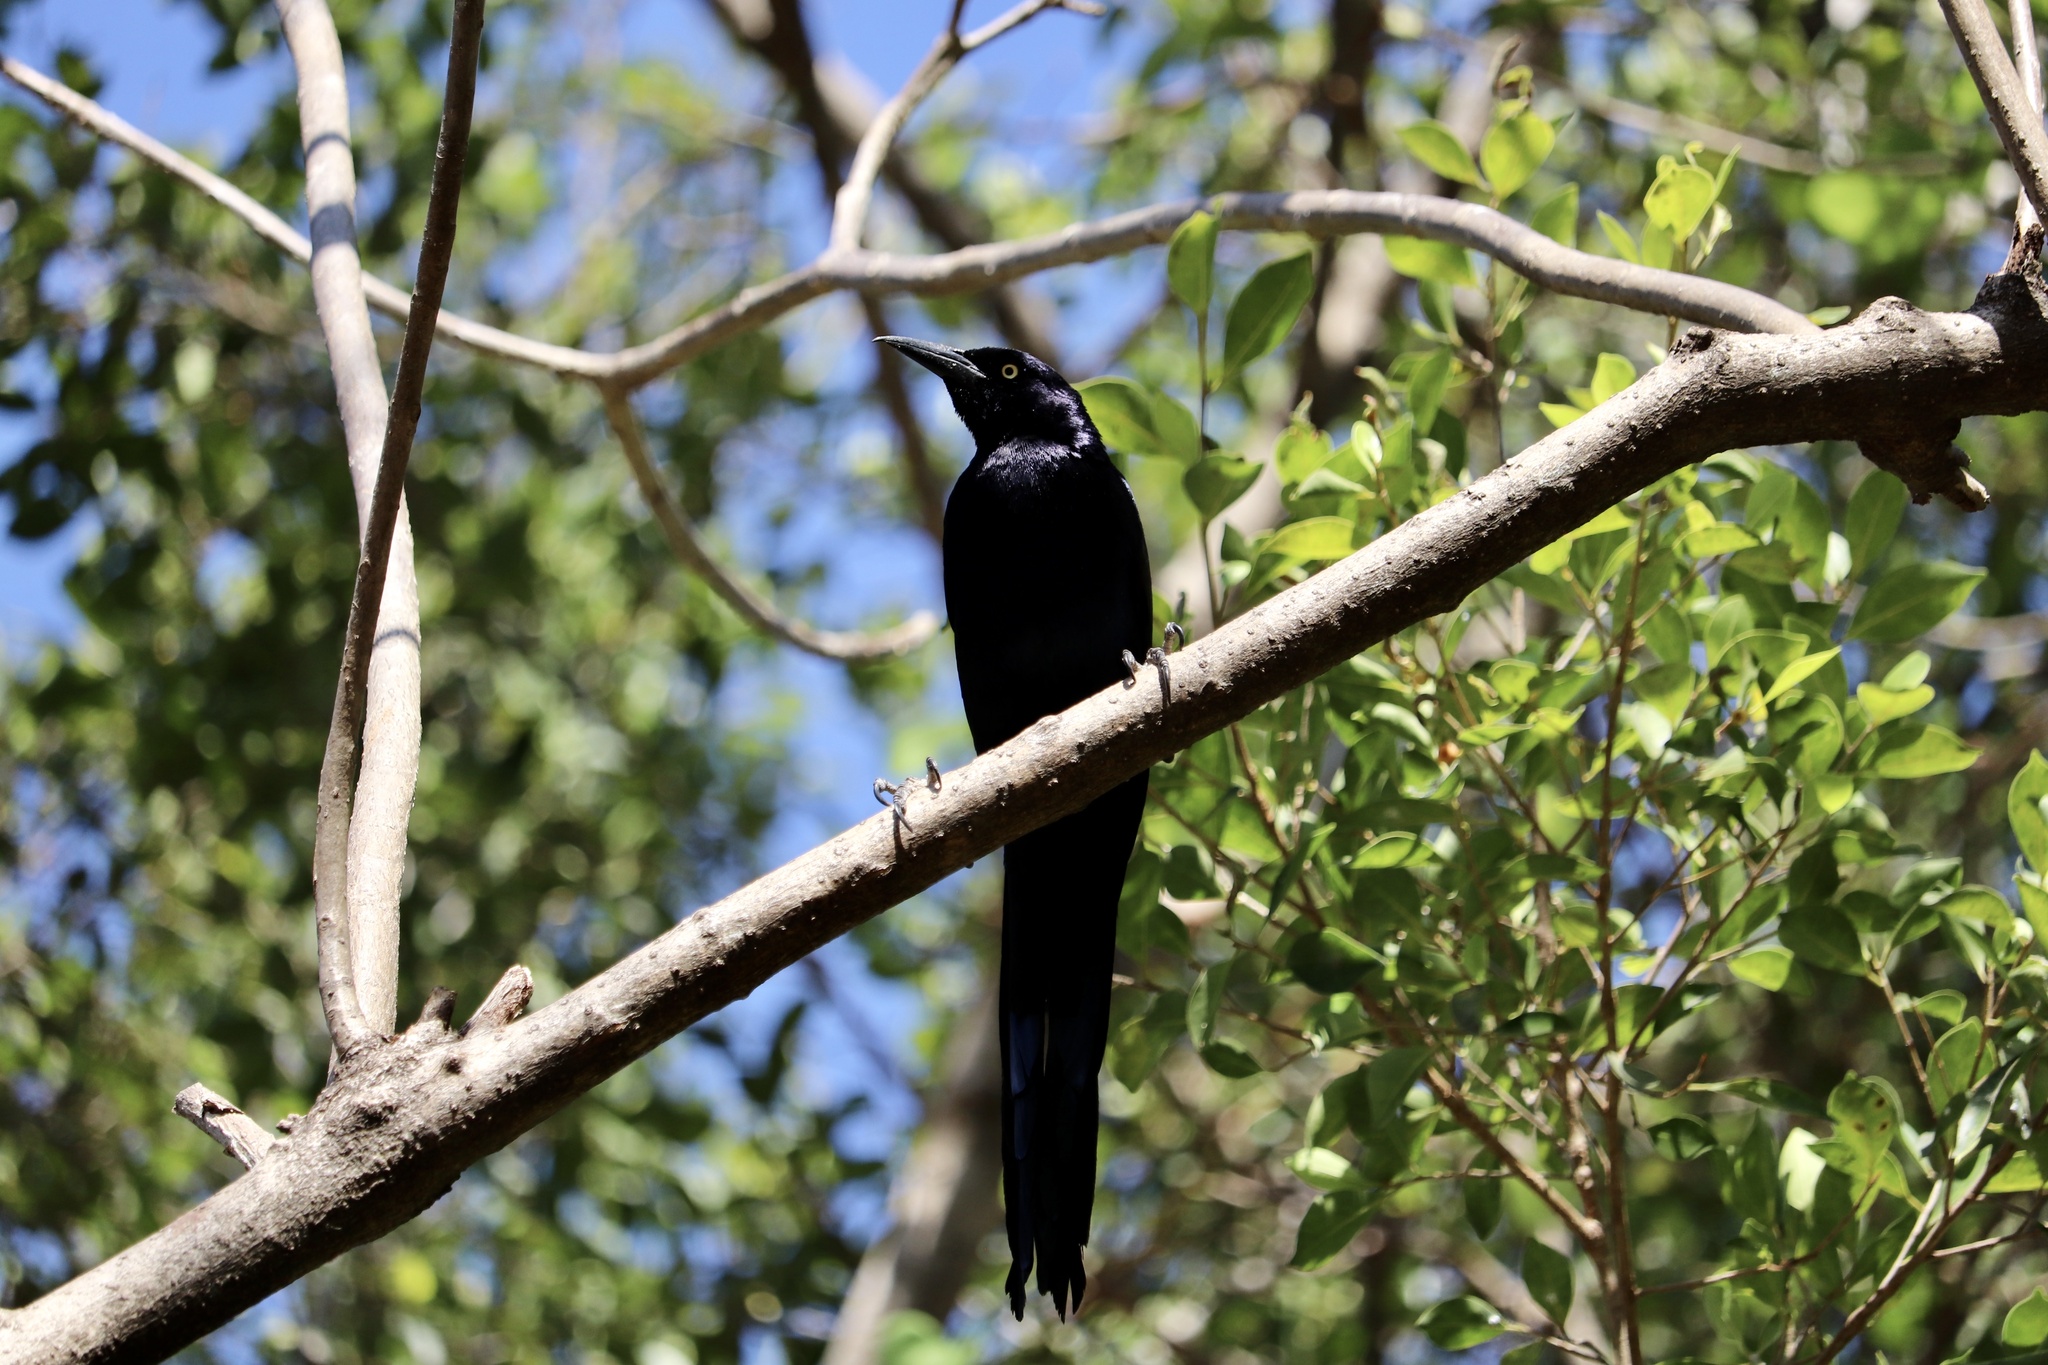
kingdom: Animalia
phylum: Chordata
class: Aves
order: Passeriformes
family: Icteridae
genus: Quiscalus
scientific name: Quiscalus mexicanus
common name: Great-tailed grackle
